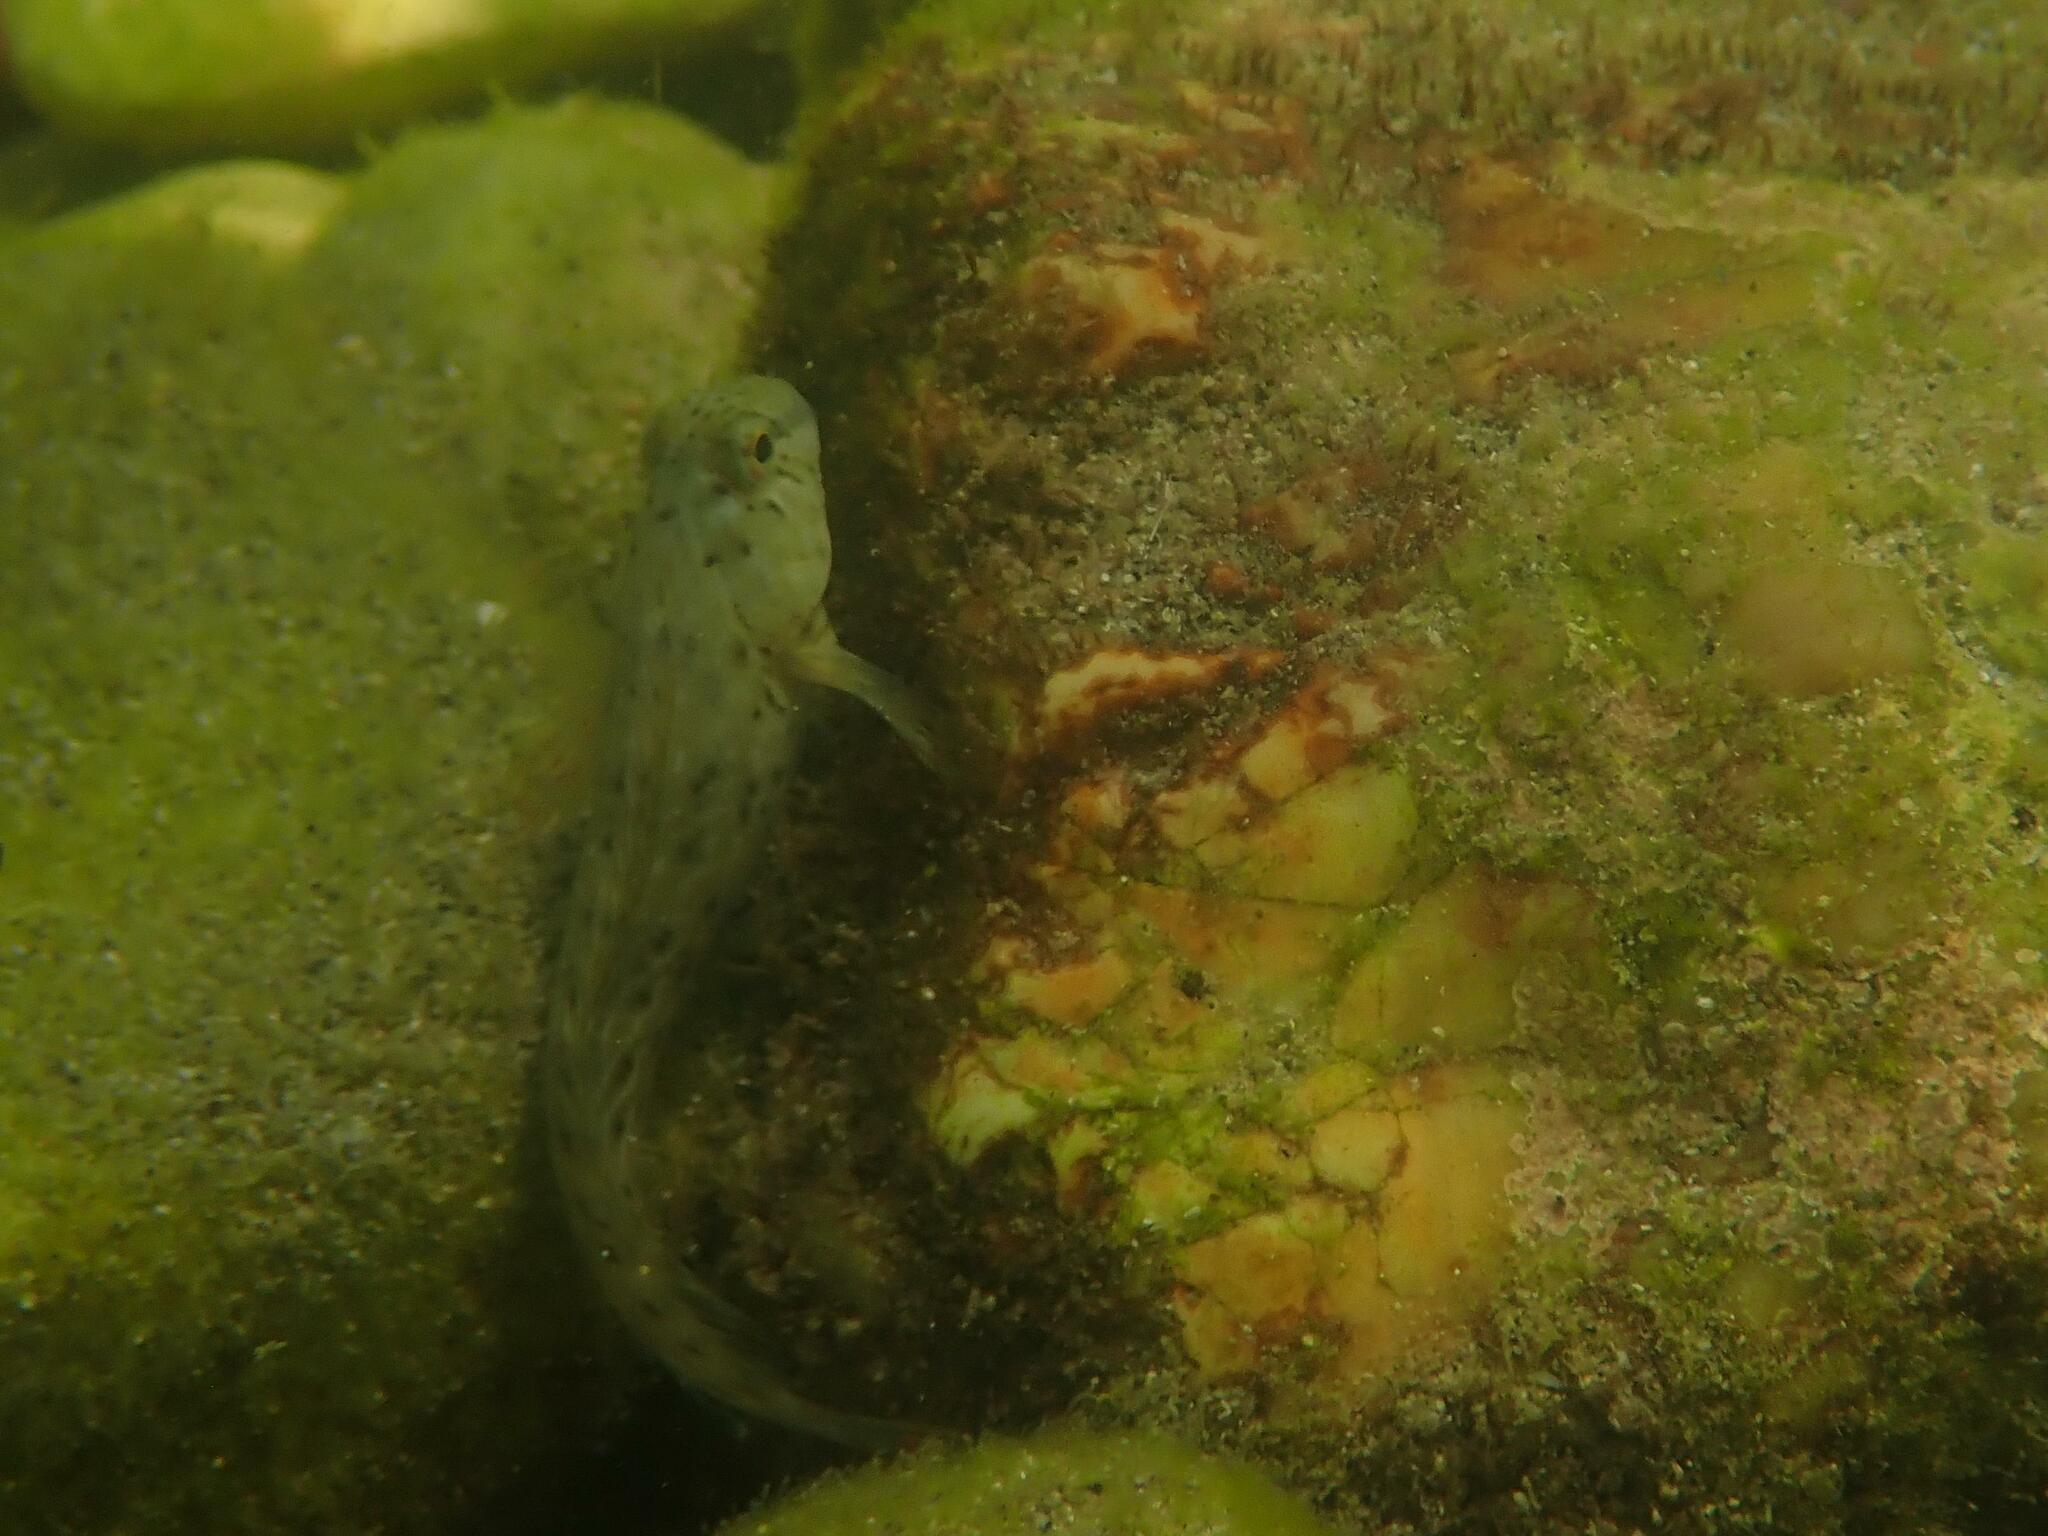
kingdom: Animalia
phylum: Chordata
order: Perciformes
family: Blenniidae
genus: Parablennius
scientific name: Parablennius sanguinolentus
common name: Black sea blenny
